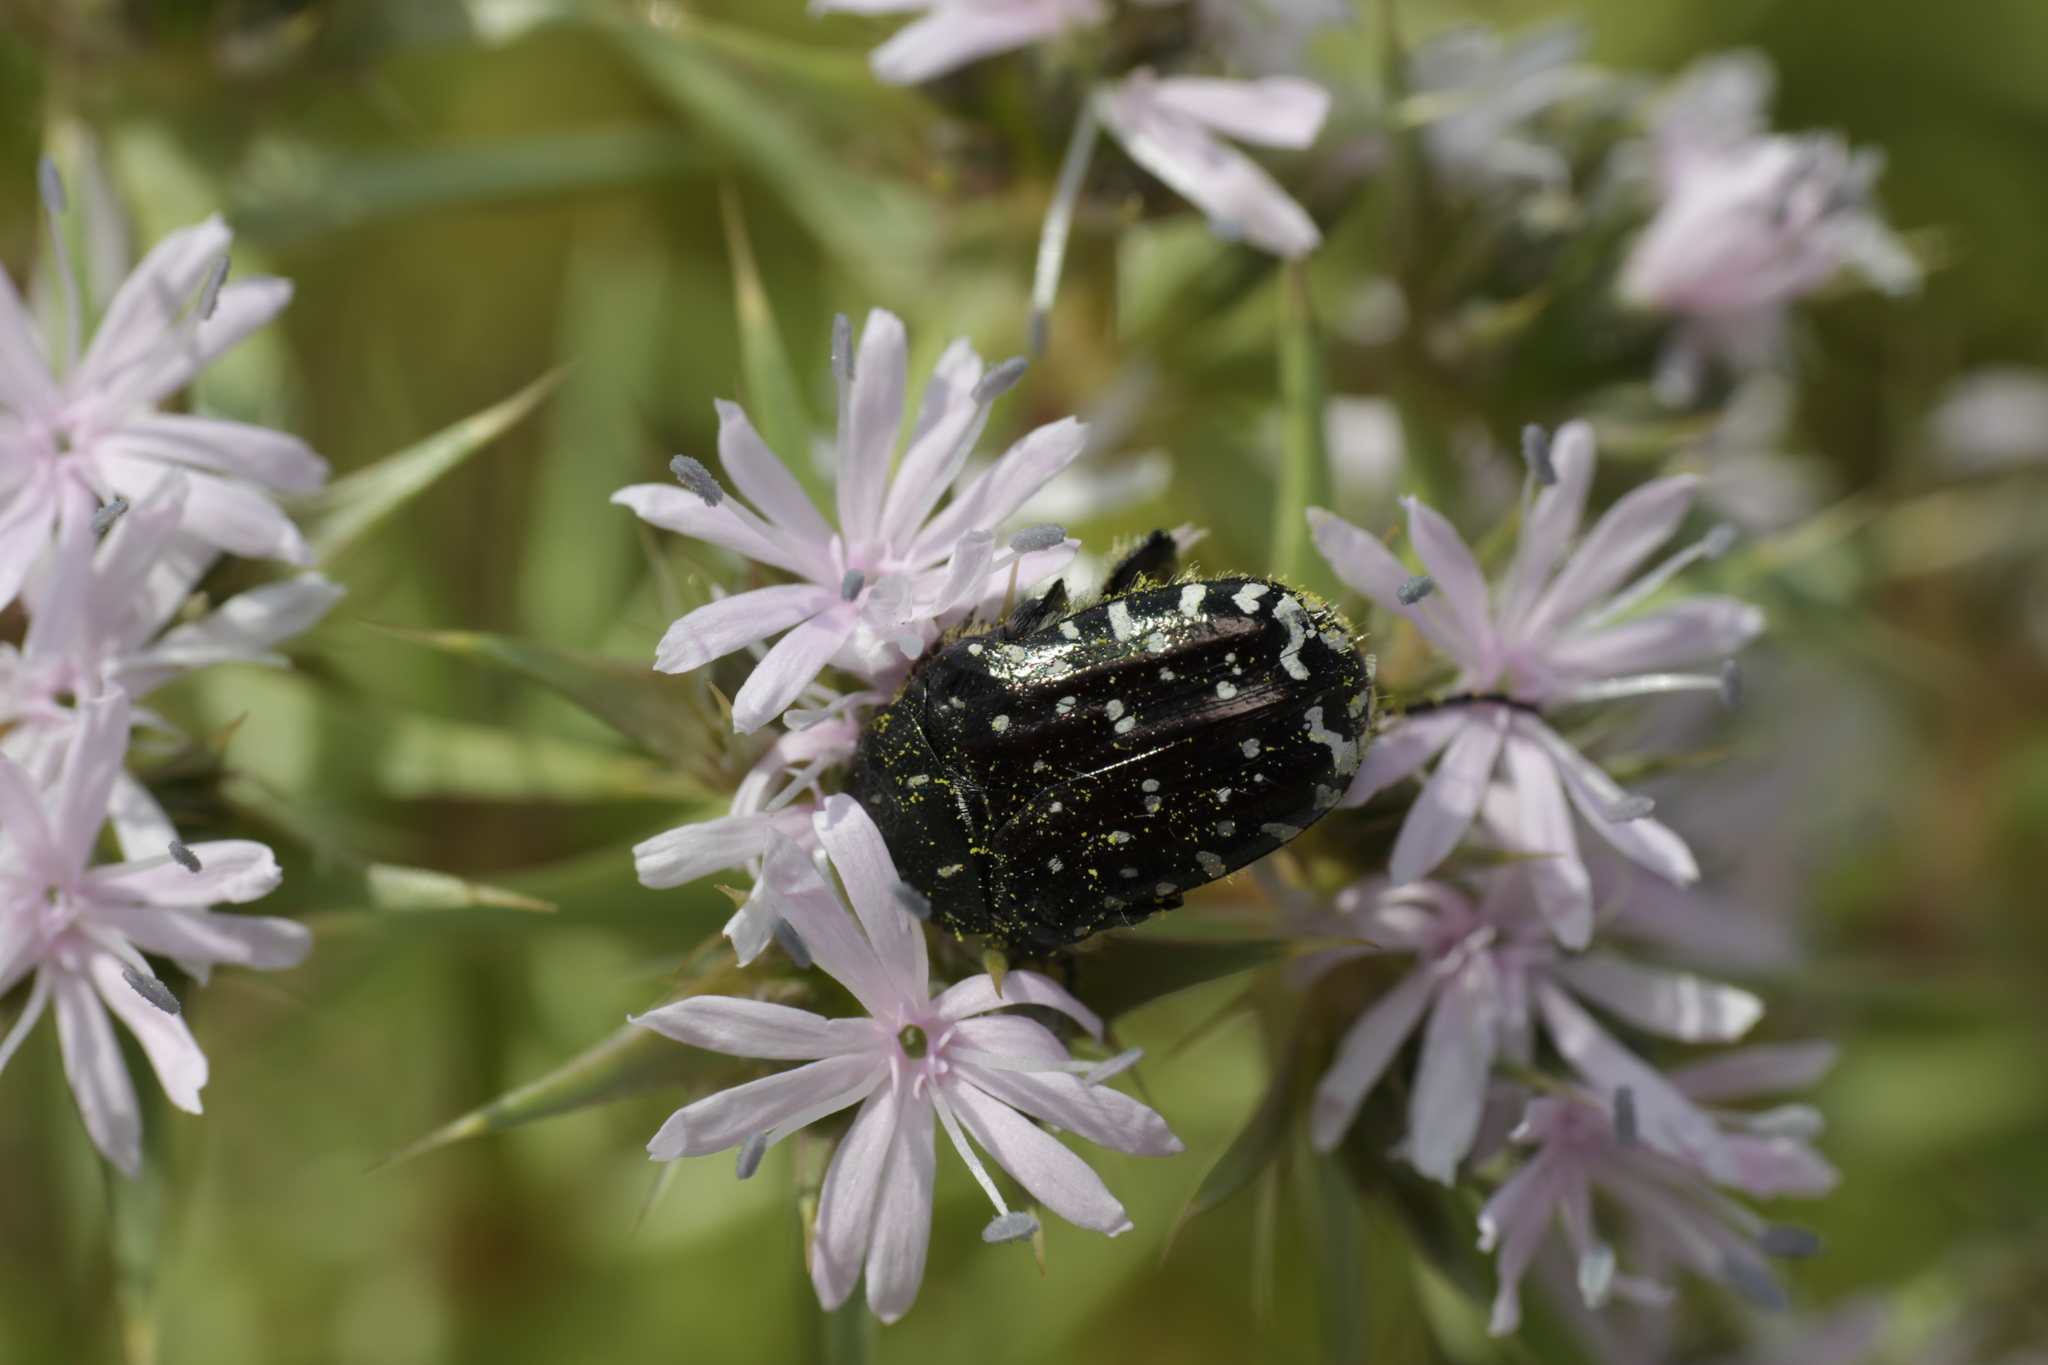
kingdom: Animalia
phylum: Arthropoda
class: Insecta
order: Coleoptera
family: Scarabaeidae
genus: Oxythyrea
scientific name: Oxythyrea funesta
